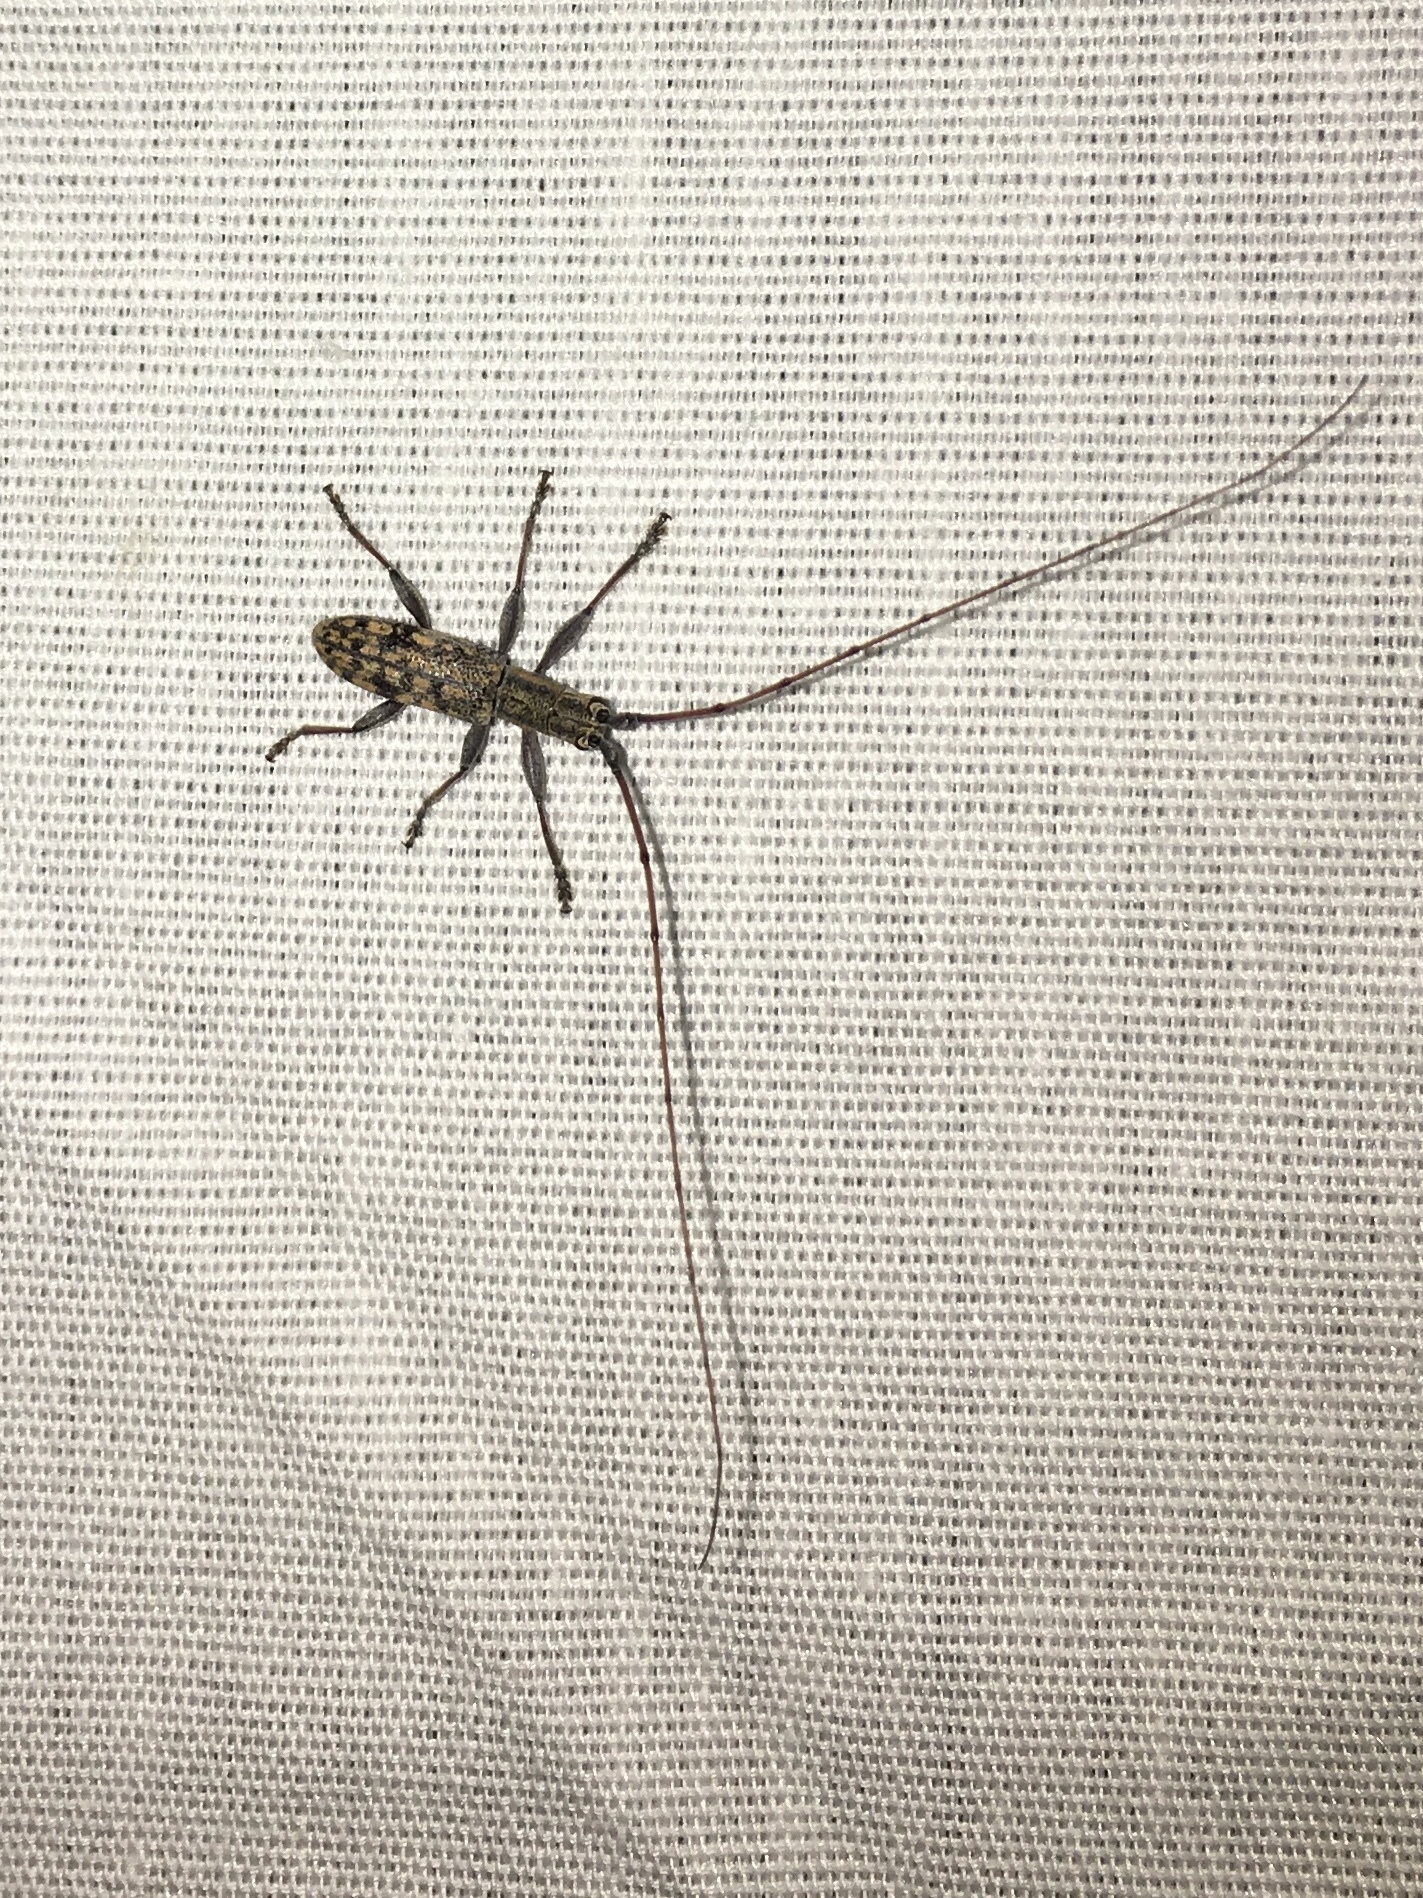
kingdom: Animalia
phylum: Arthropoda
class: Insecta
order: Coleoptera
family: Cerambycidae
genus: Dorcaschema
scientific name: Dorcaschema alternatum
